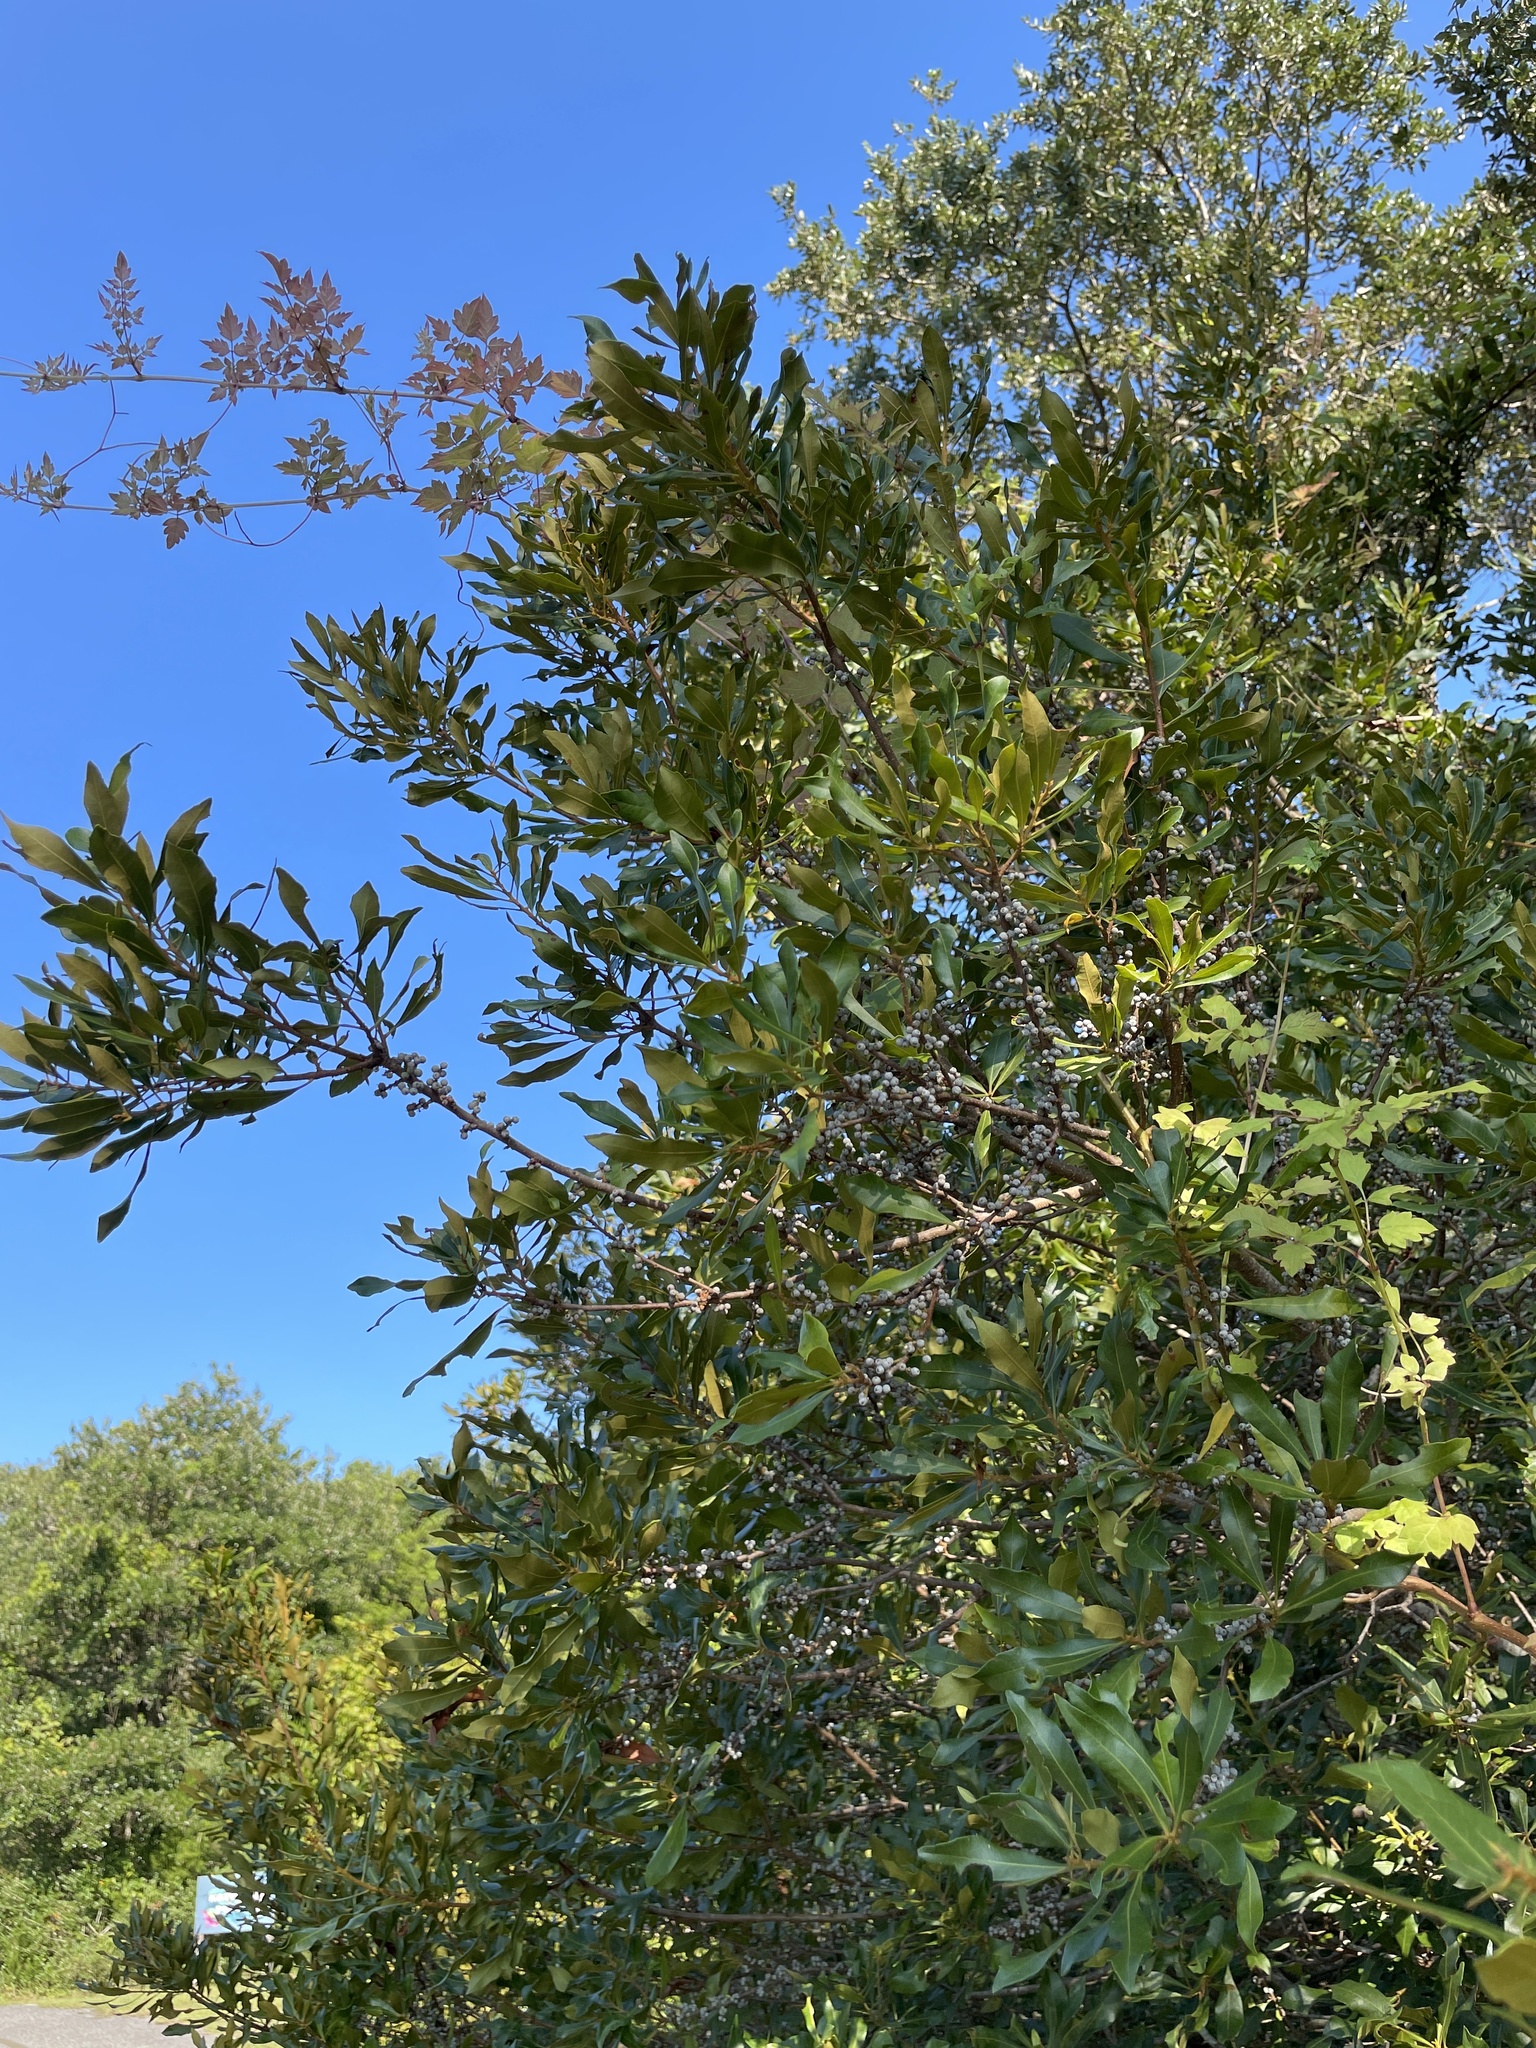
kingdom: Plantae
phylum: Tracheophyta
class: Magnoliopsida
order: Fagales
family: Myricaceae
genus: Morella
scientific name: Morella cerifera
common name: Wax myrtle
